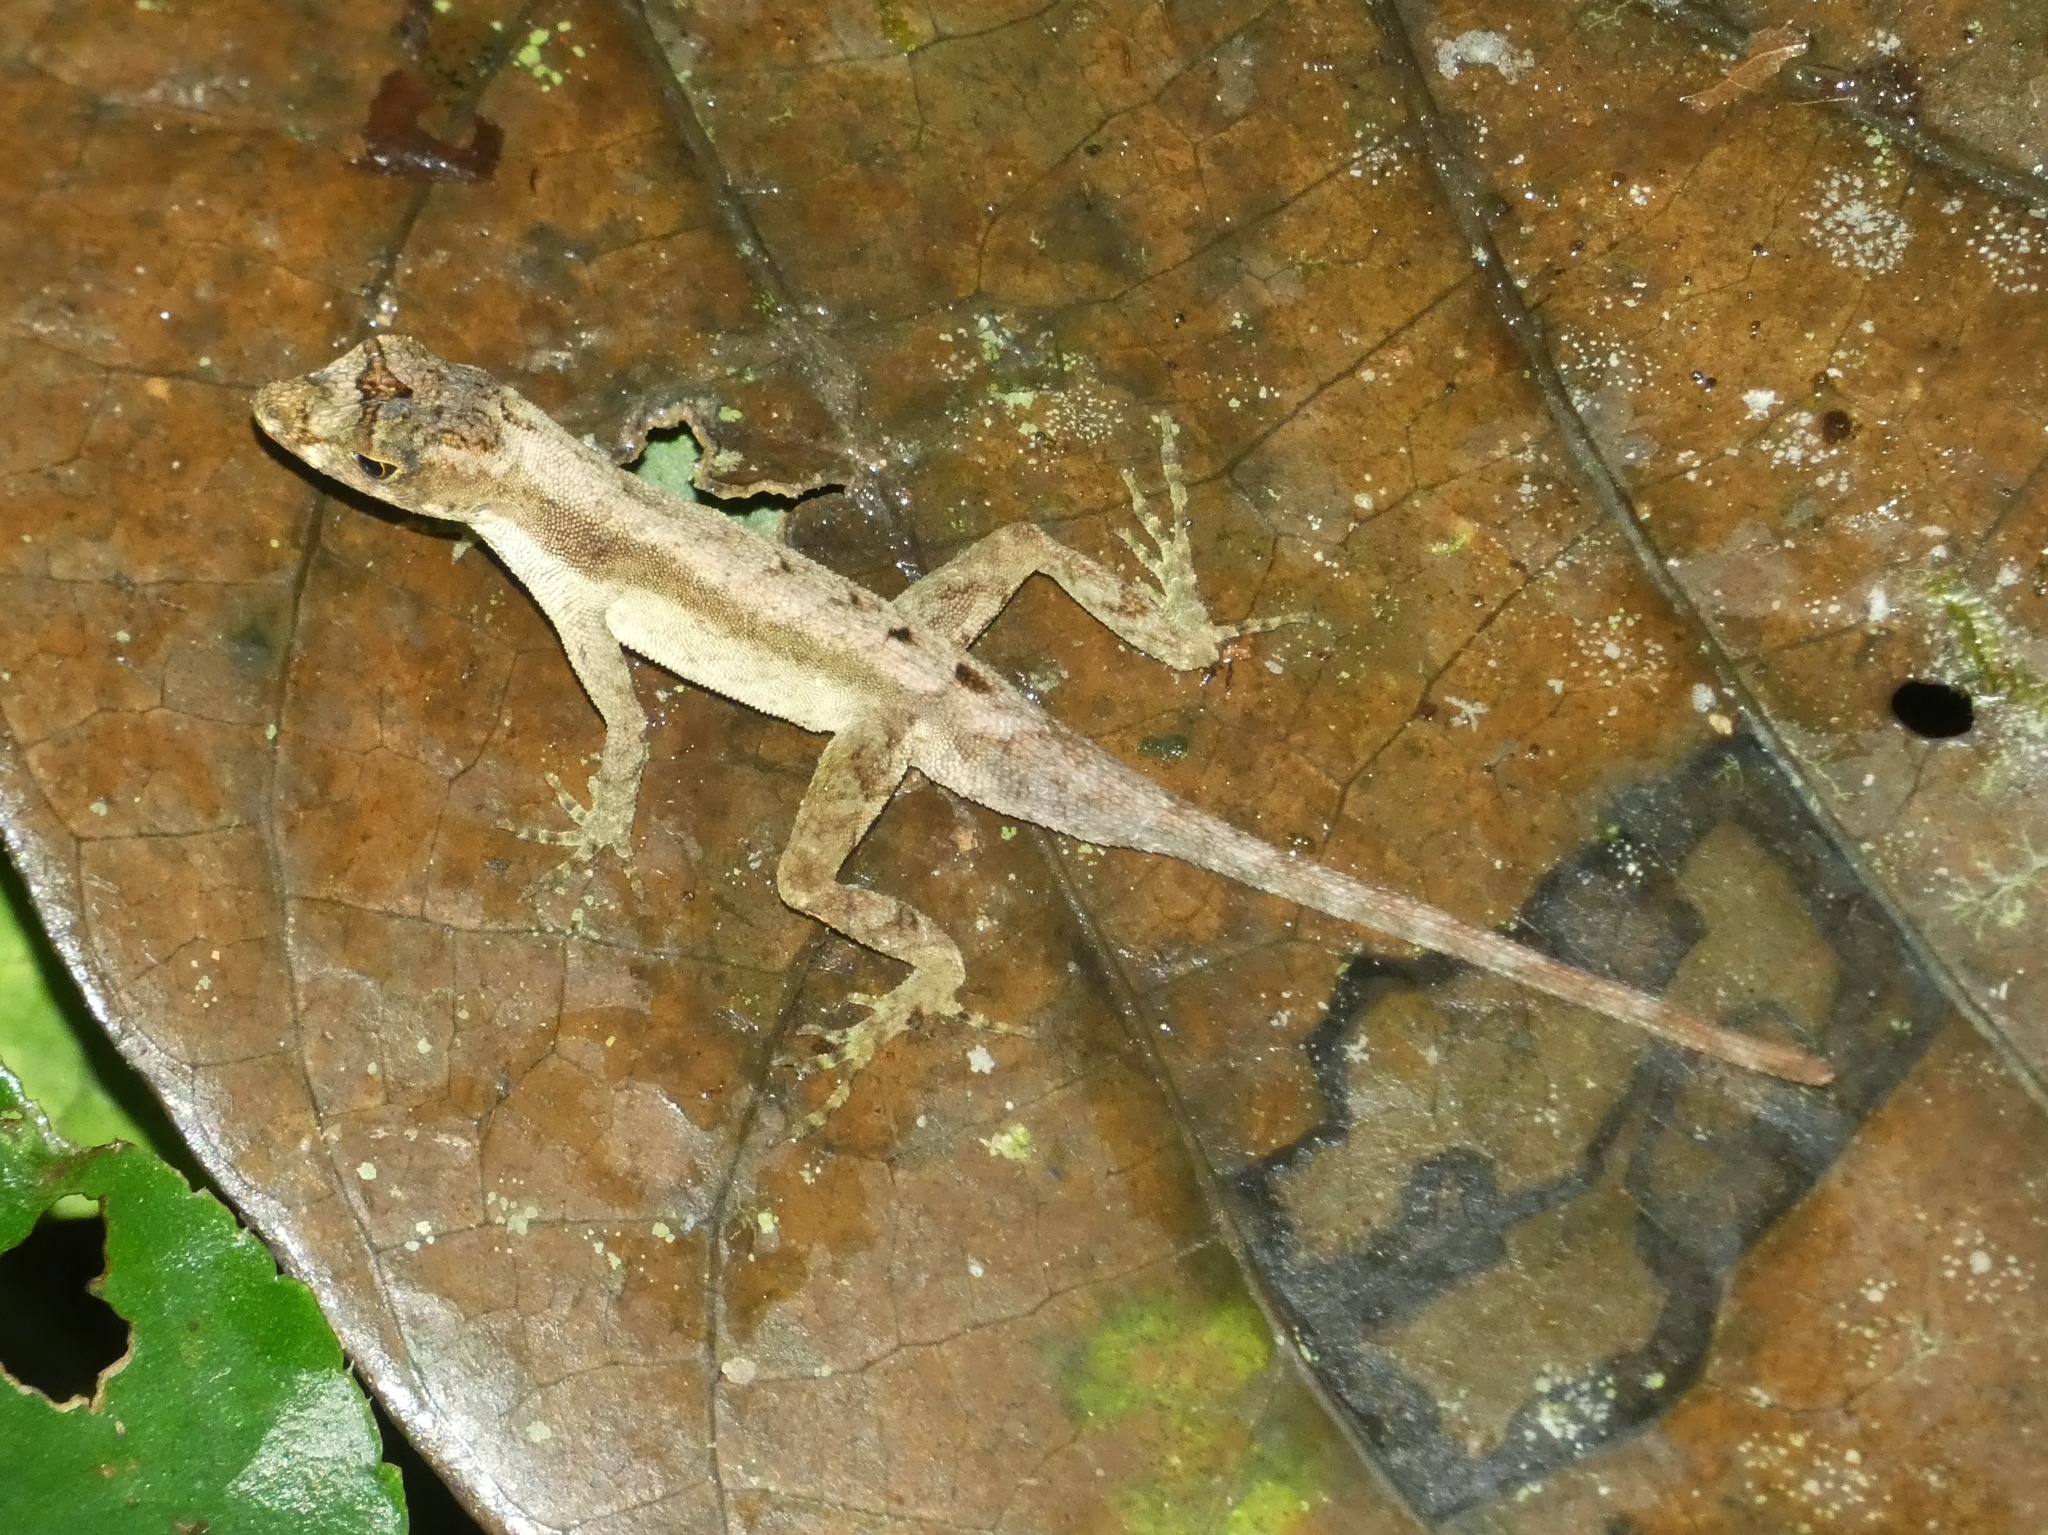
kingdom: Animalia
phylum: Chordata
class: Squamata
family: Dactyloidae
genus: Anolis
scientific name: Anolis humilis
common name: Humble anole
